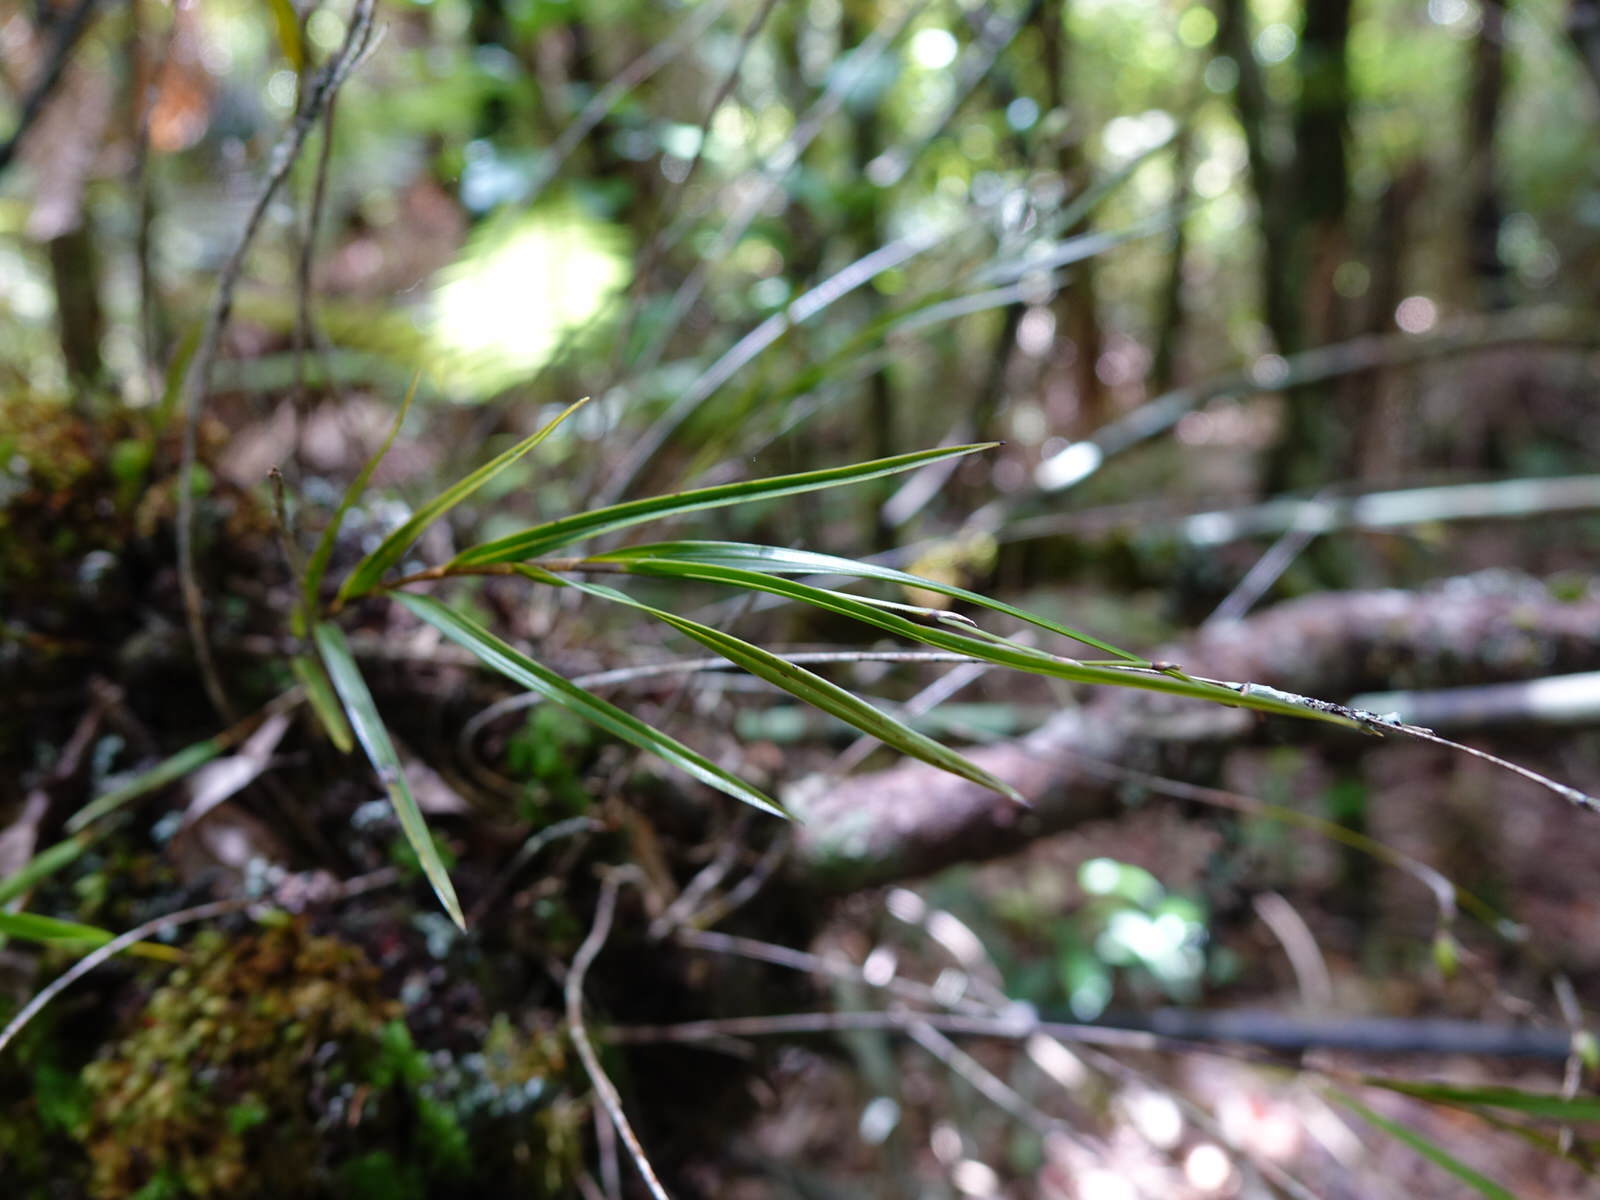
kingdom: Plantae
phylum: Tracheophyta
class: Liliopsida
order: Asparagales
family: Orchidaceae
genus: Dendrobium
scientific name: Dendrobium cunninghamii
